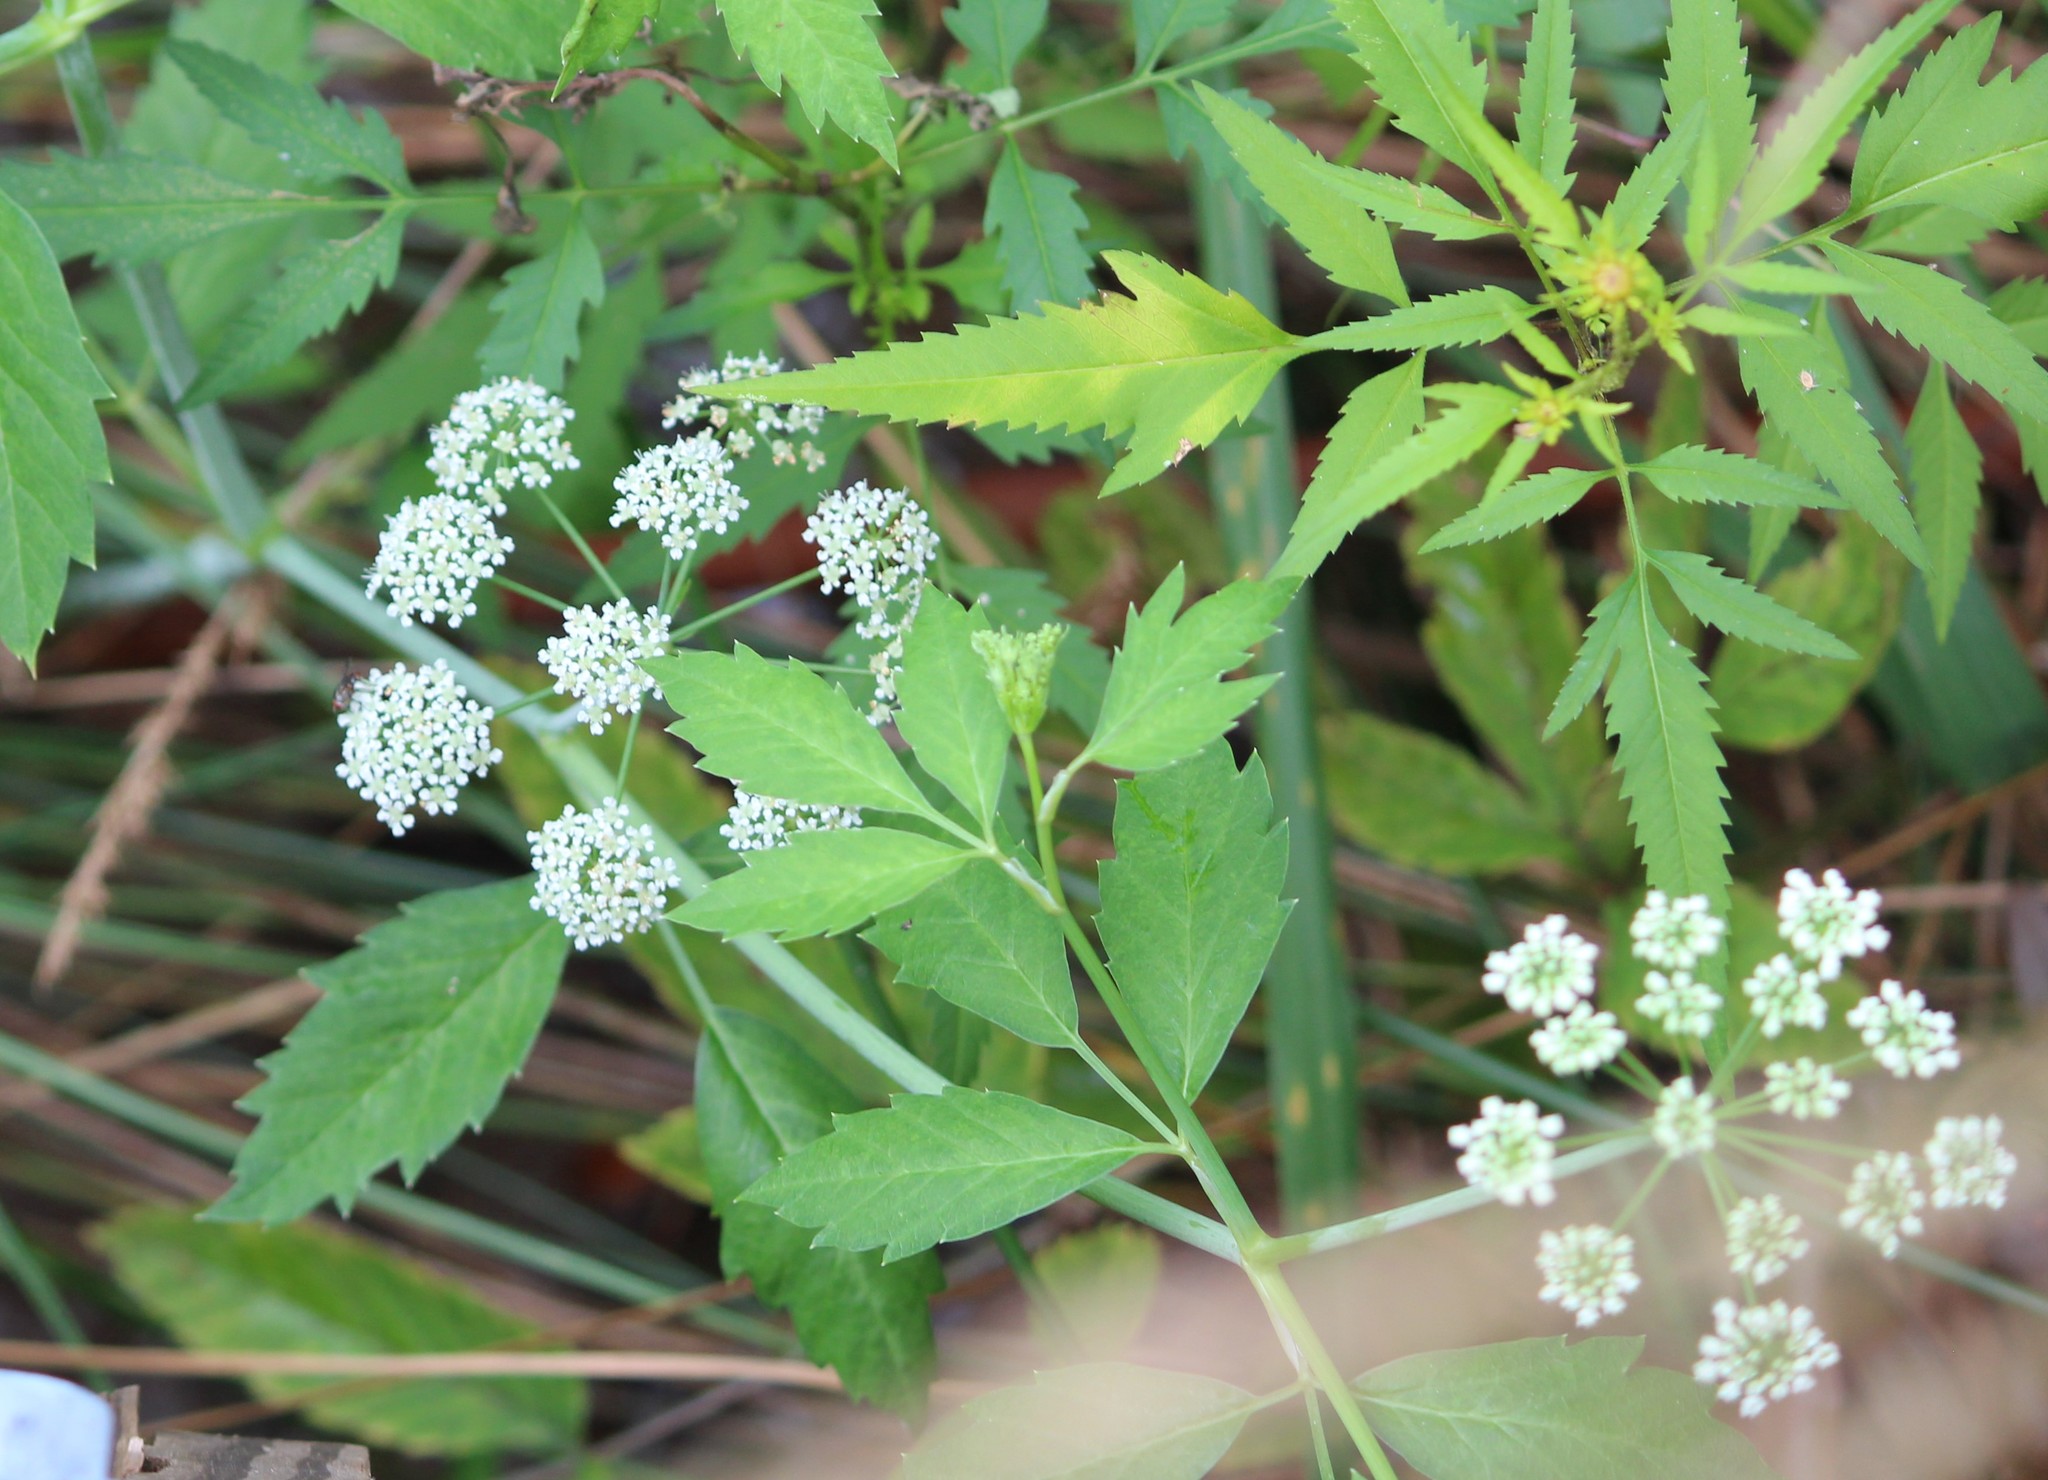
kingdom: Plantae
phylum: Tracheophyta
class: Magnoliopsida
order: Apiales
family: Apiaceae
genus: Cicuta
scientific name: Cicuta maculata
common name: Spotted cowbane
